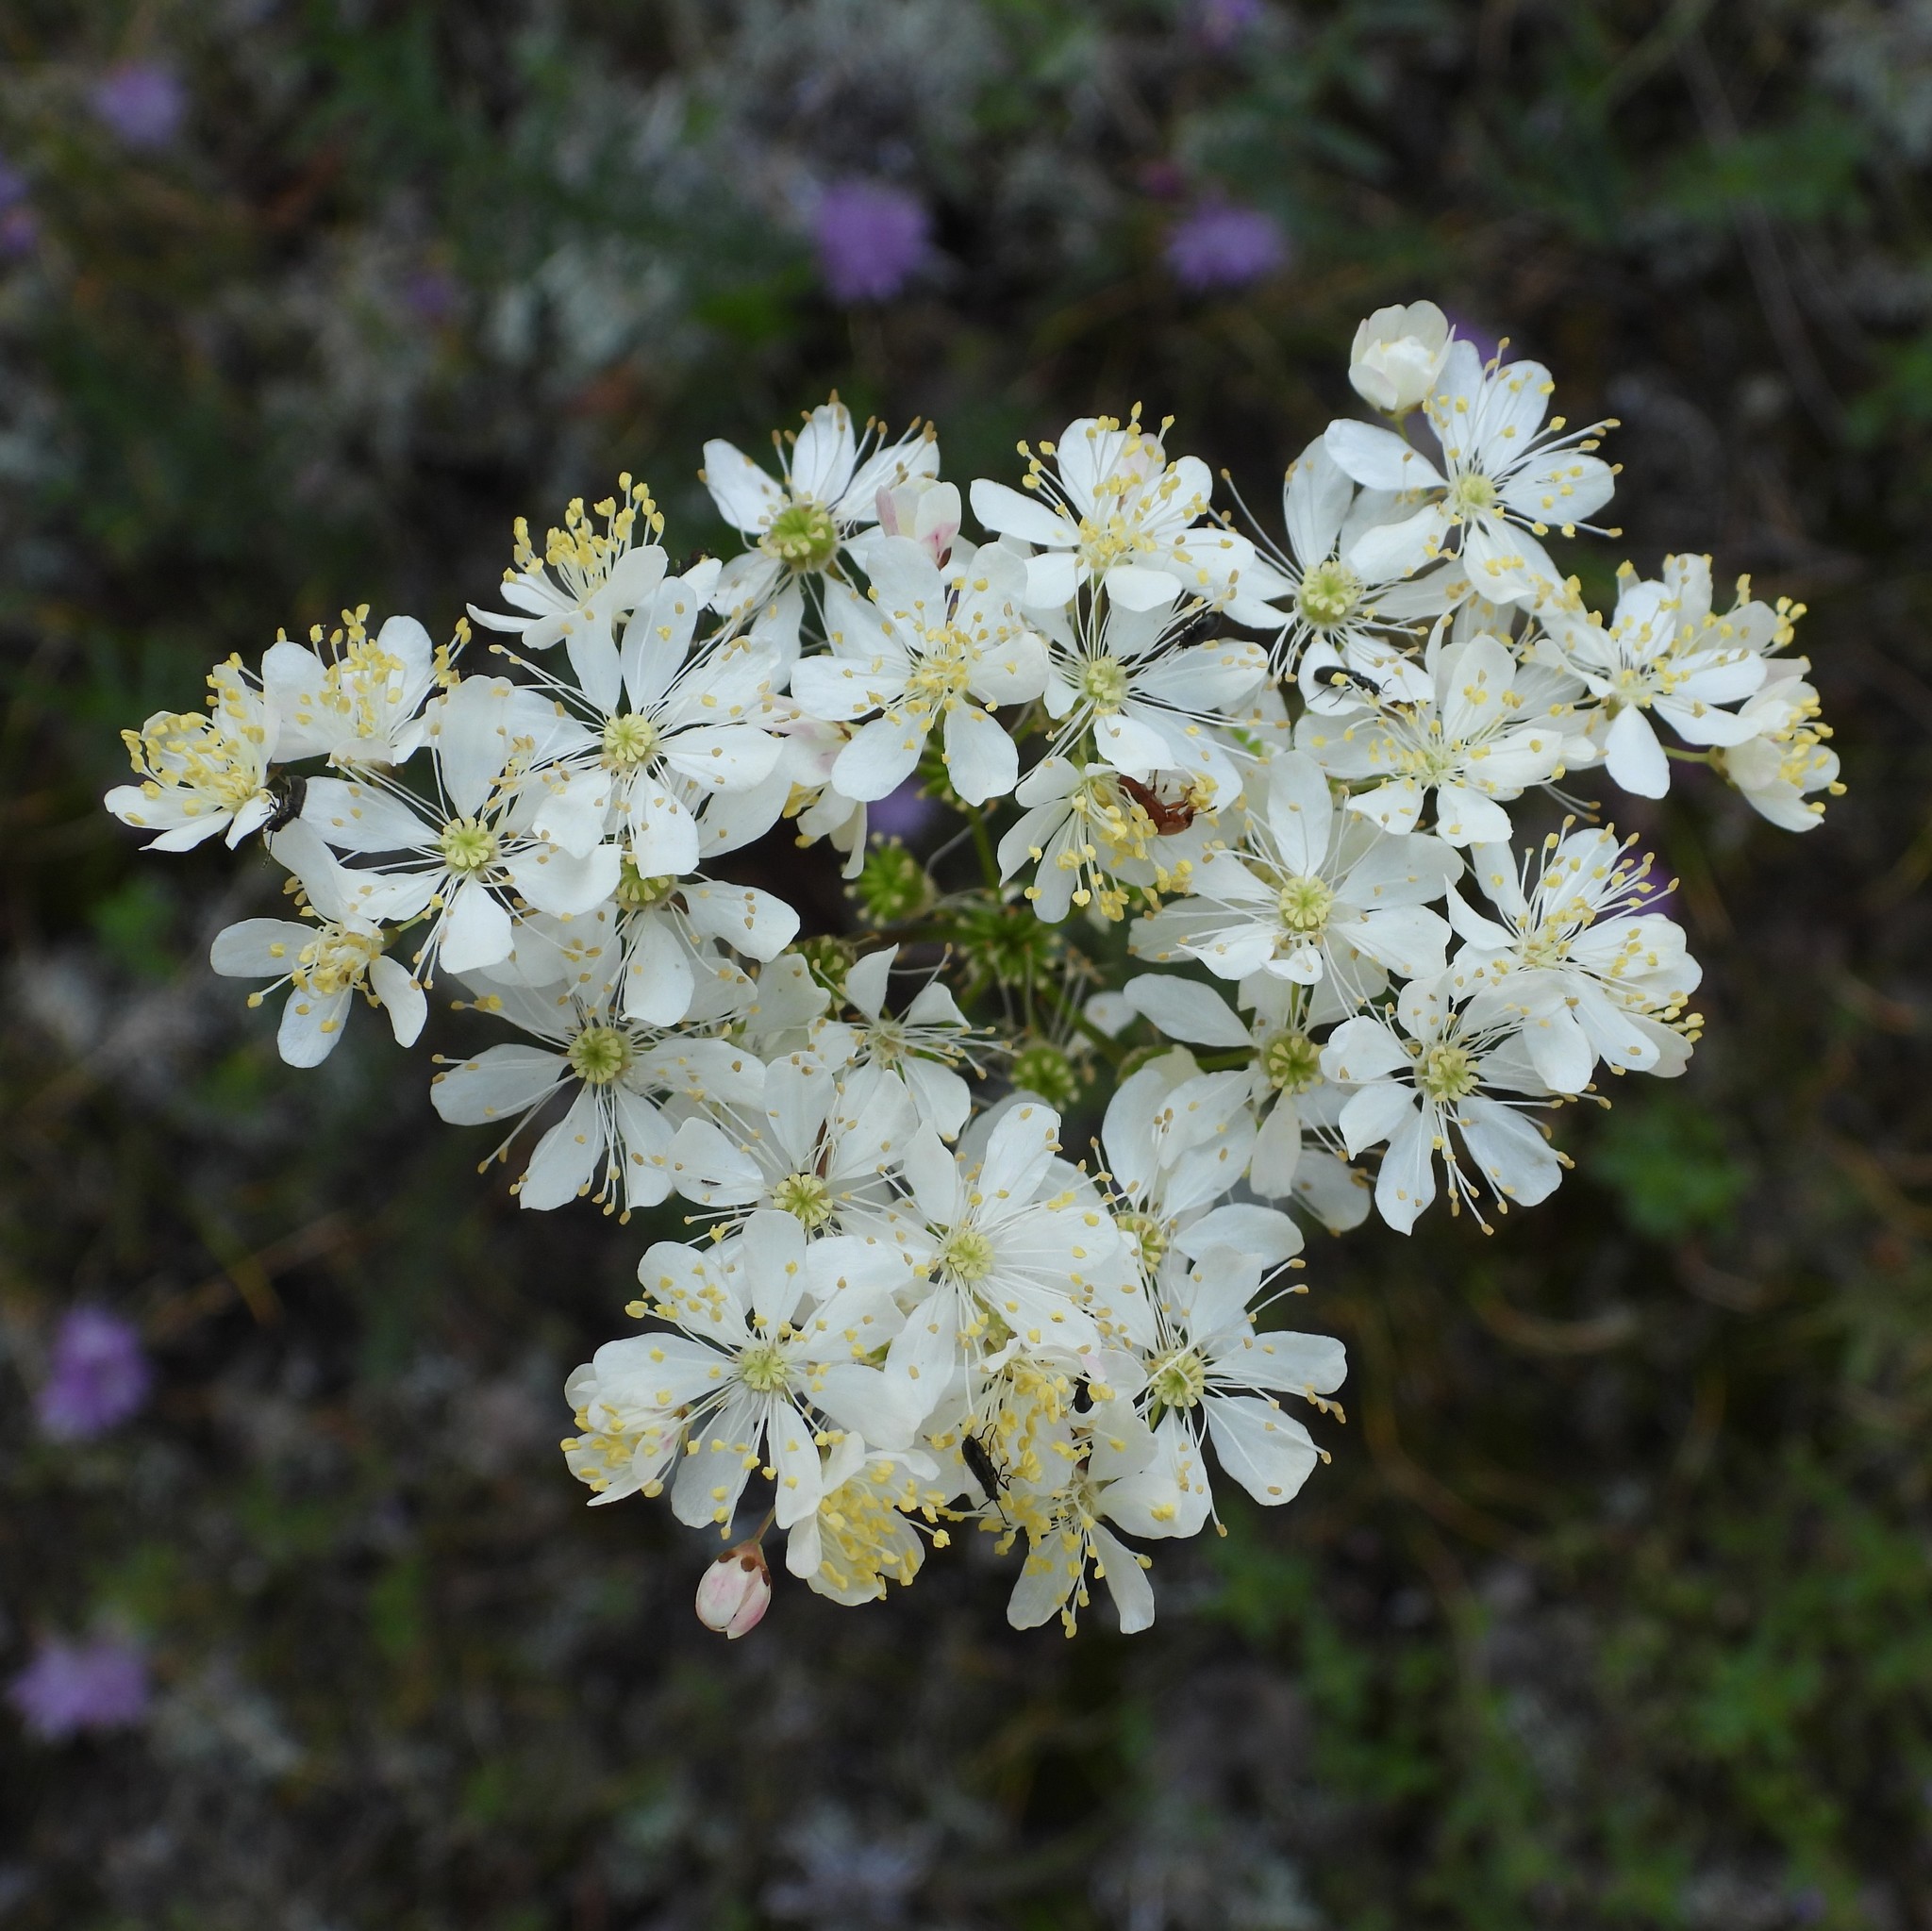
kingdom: Plantae
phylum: Tracheophyta
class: Magnoliopsida
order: Rosales
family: Rosaceae
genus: Filipendula
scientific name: Filipendula vulgaris
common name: Dropwort
